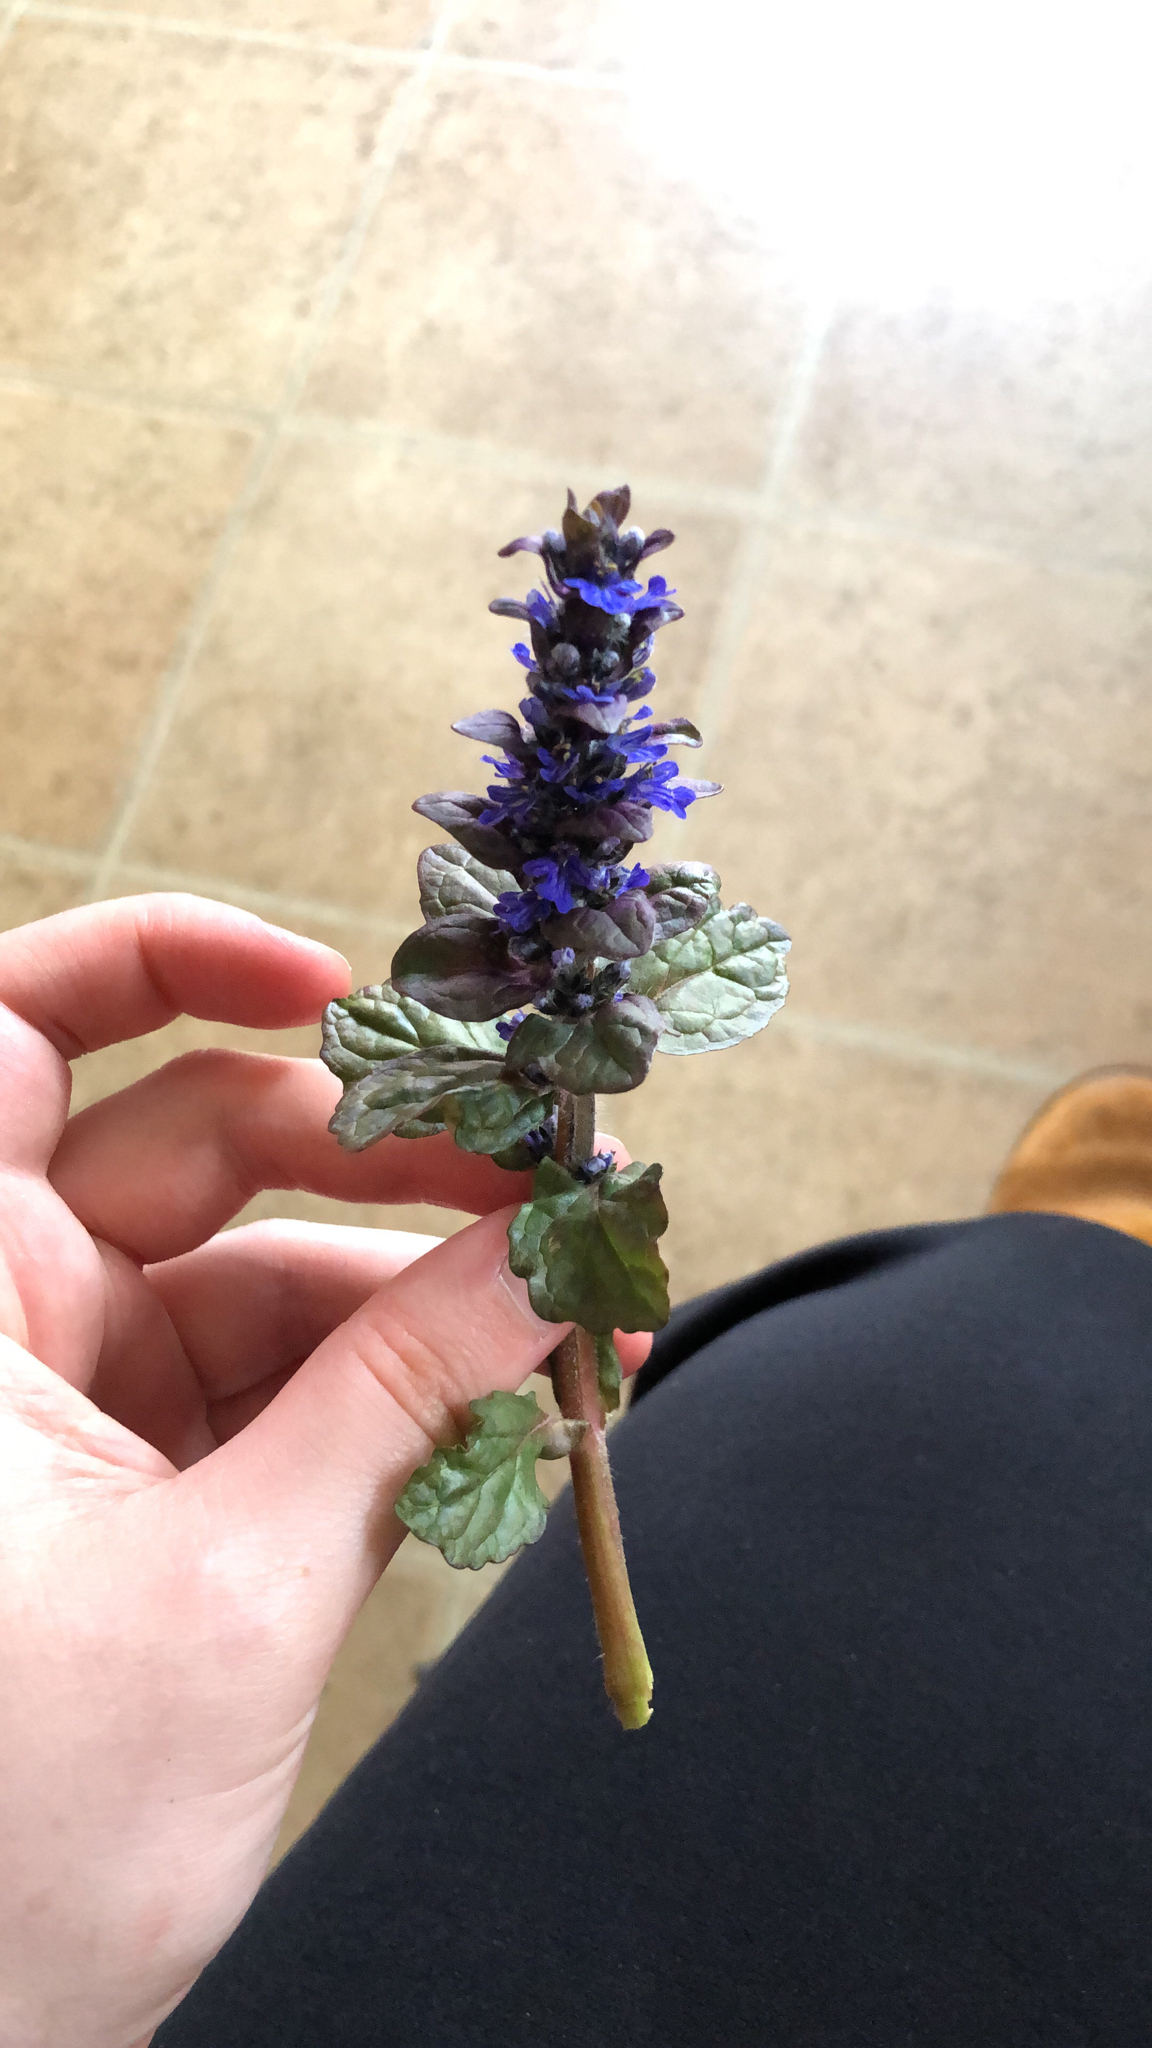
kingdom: Plantae
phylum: Tracheophyta
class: Magnoliopsida
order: Lamiales
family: Lamiaceae
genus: Ajuga
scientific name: Ajuga reptans
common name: Bugle
